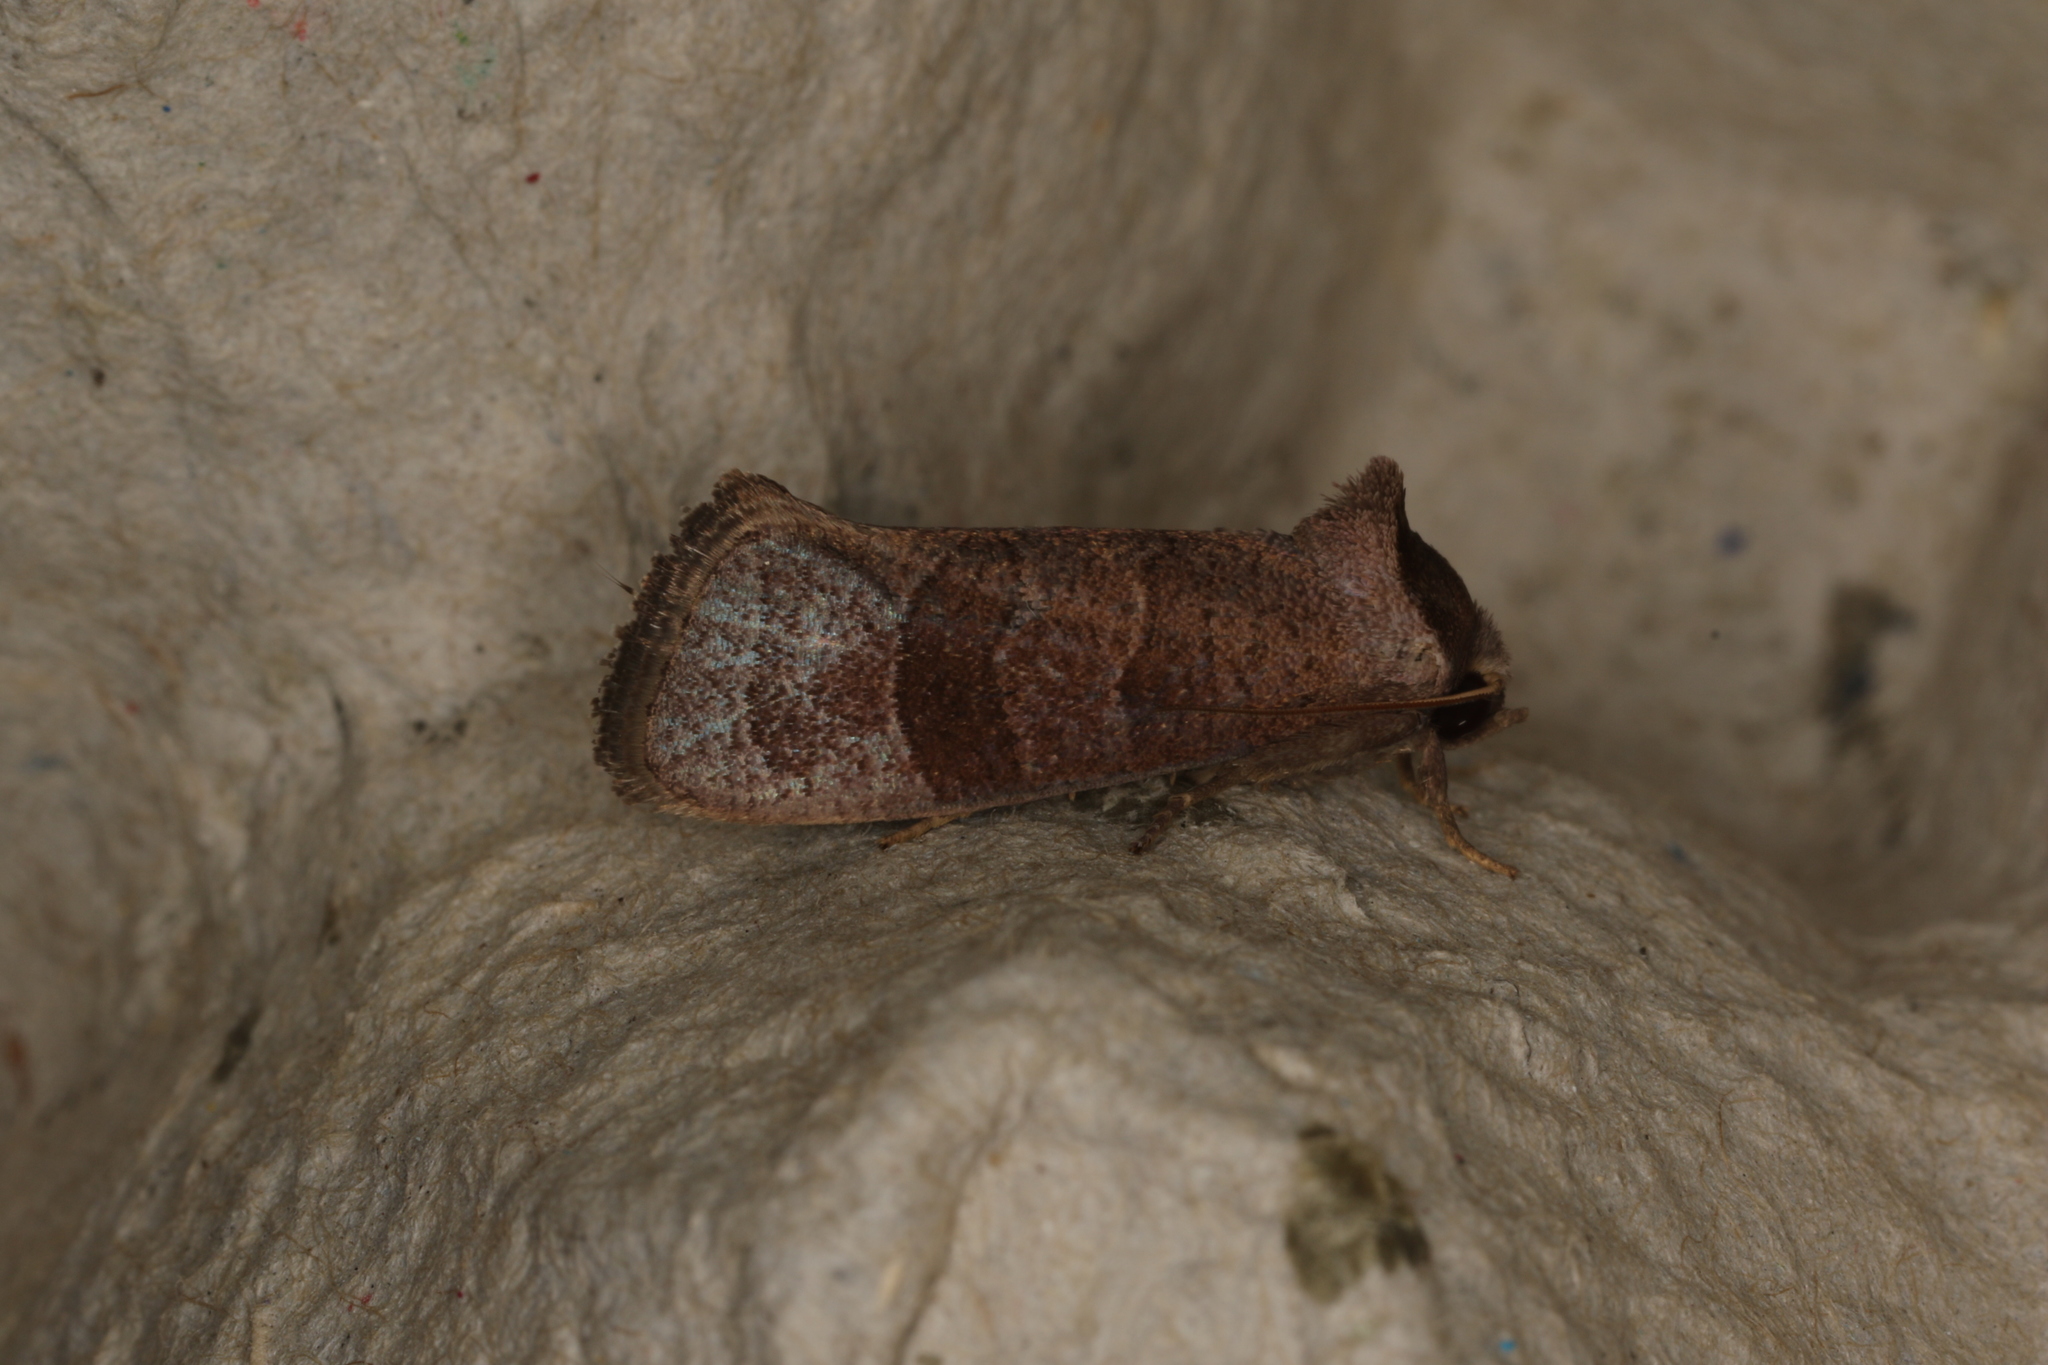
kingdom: Animalia
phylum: Arthropoda
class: Insecta
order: Lepidoptera
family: Cossidae
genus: Eusthenica
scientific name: Eusthenica treicleiota
